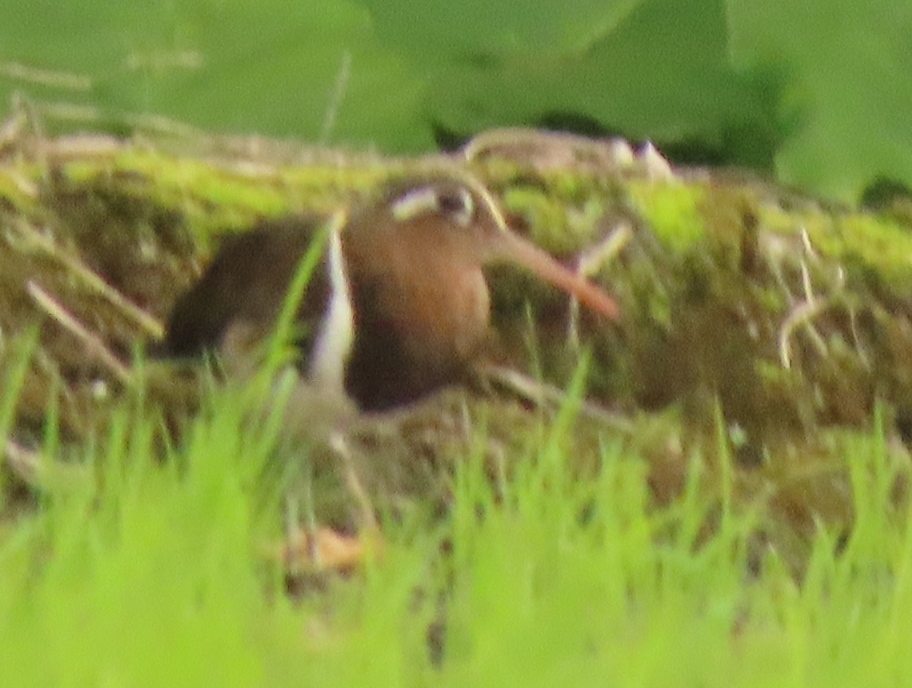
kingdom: Animalia
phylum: Chordata
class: Aves
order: Charadriiformes
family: Rostratulidae
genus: Rostratula
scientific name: Rostratula benghalensis
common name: Greater painted-snipe
